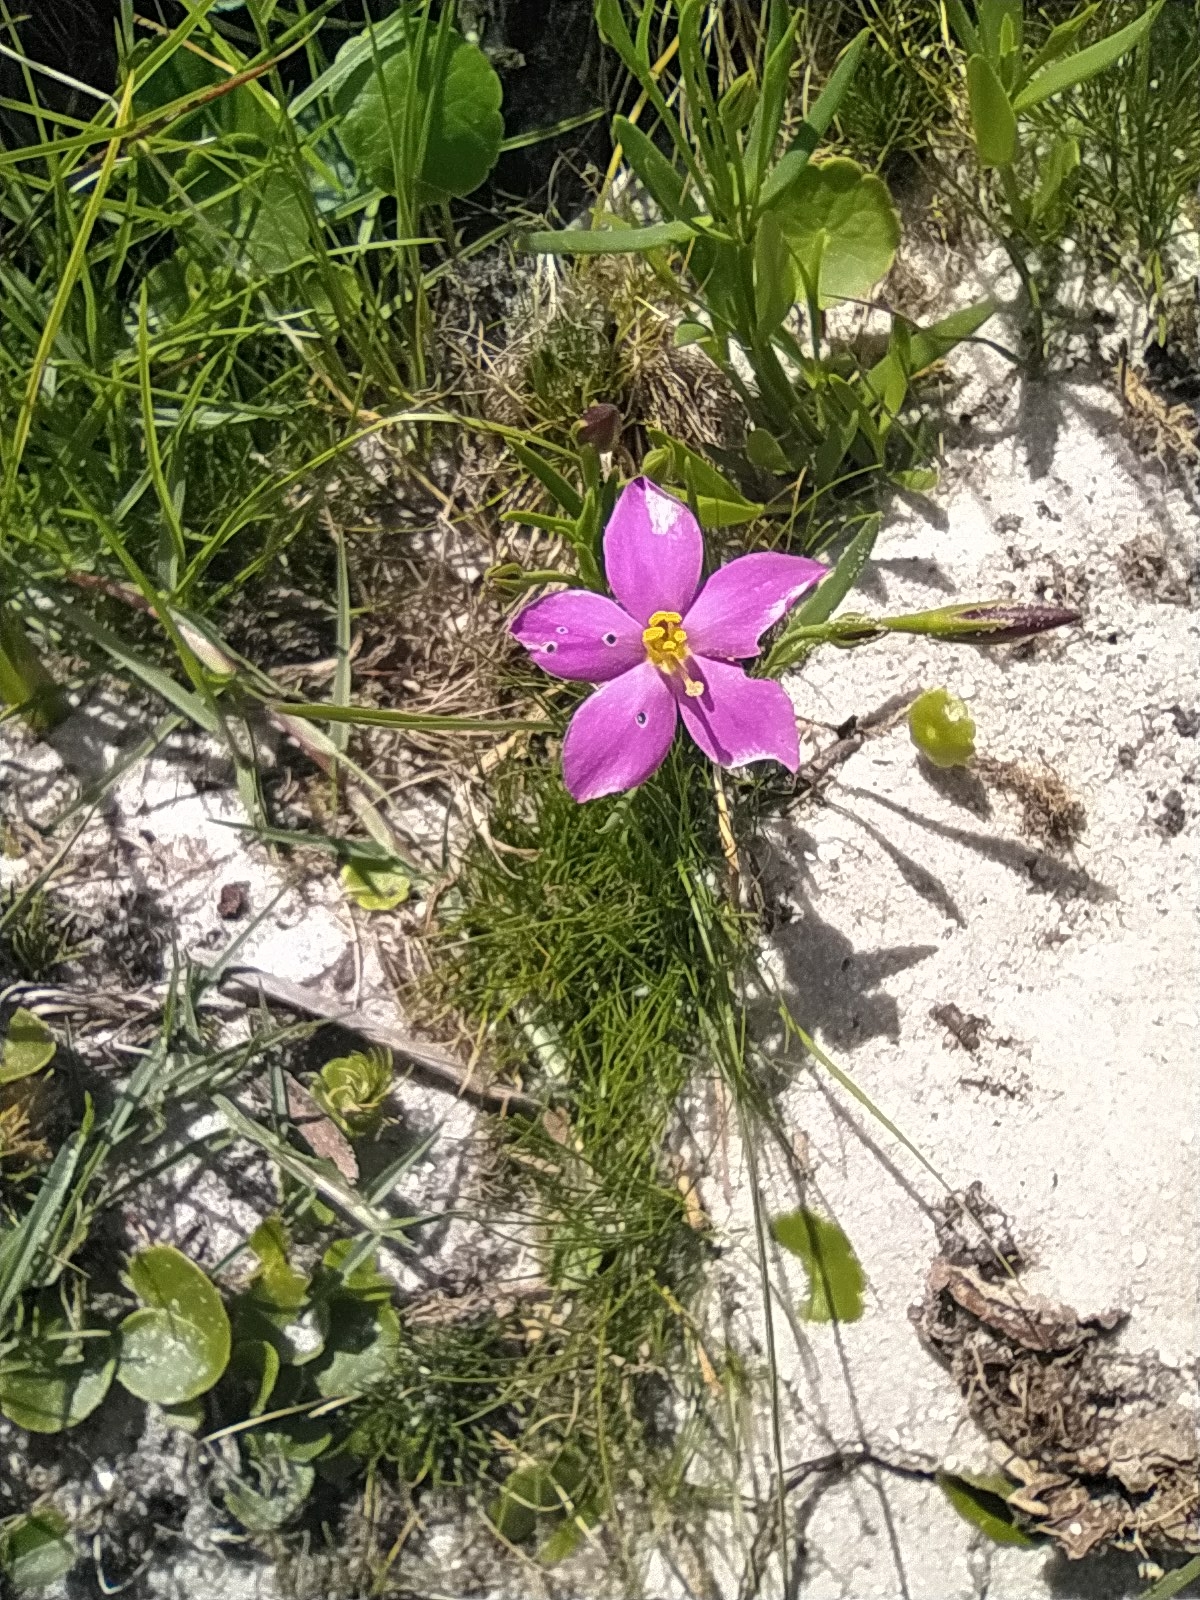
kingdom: Plantae
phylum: Tracheophyta
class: Magnoliopsida
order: Gentianales
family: Gentianaceae
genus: Orphium
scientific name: Orphium frutescens
